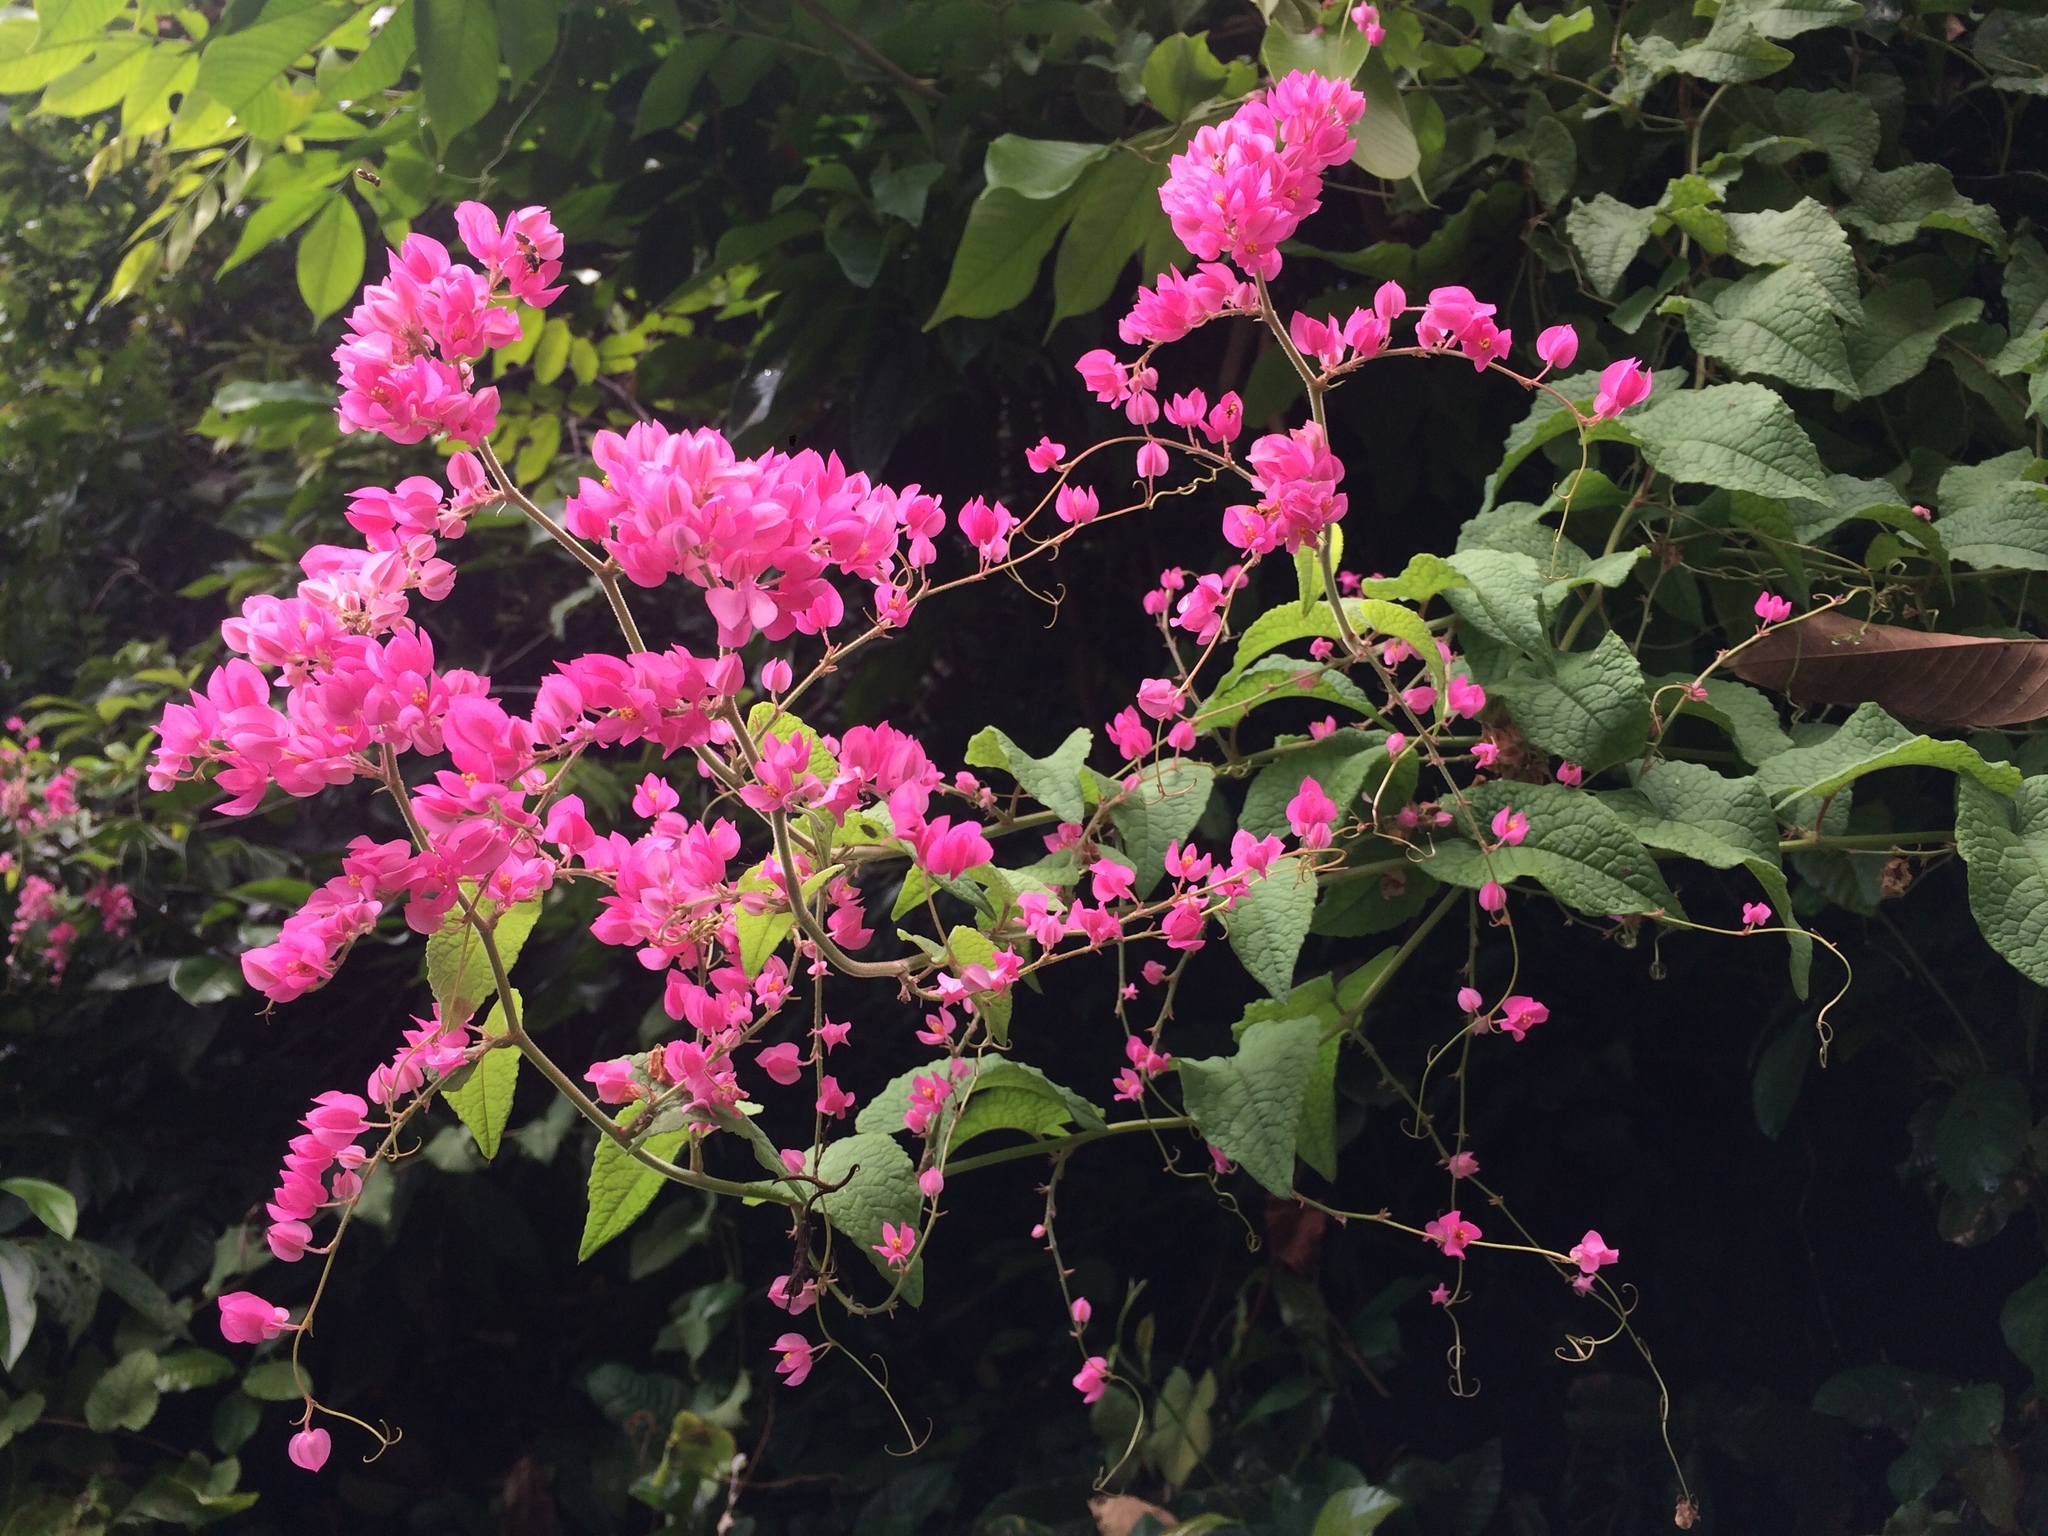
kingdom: Plantae
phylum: Tracheophyta
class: Magnoliopsida
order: Caryophyllales
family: Polygonaceae
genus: Antigonon
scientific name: Antigonon leptopus
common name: Coral vine
